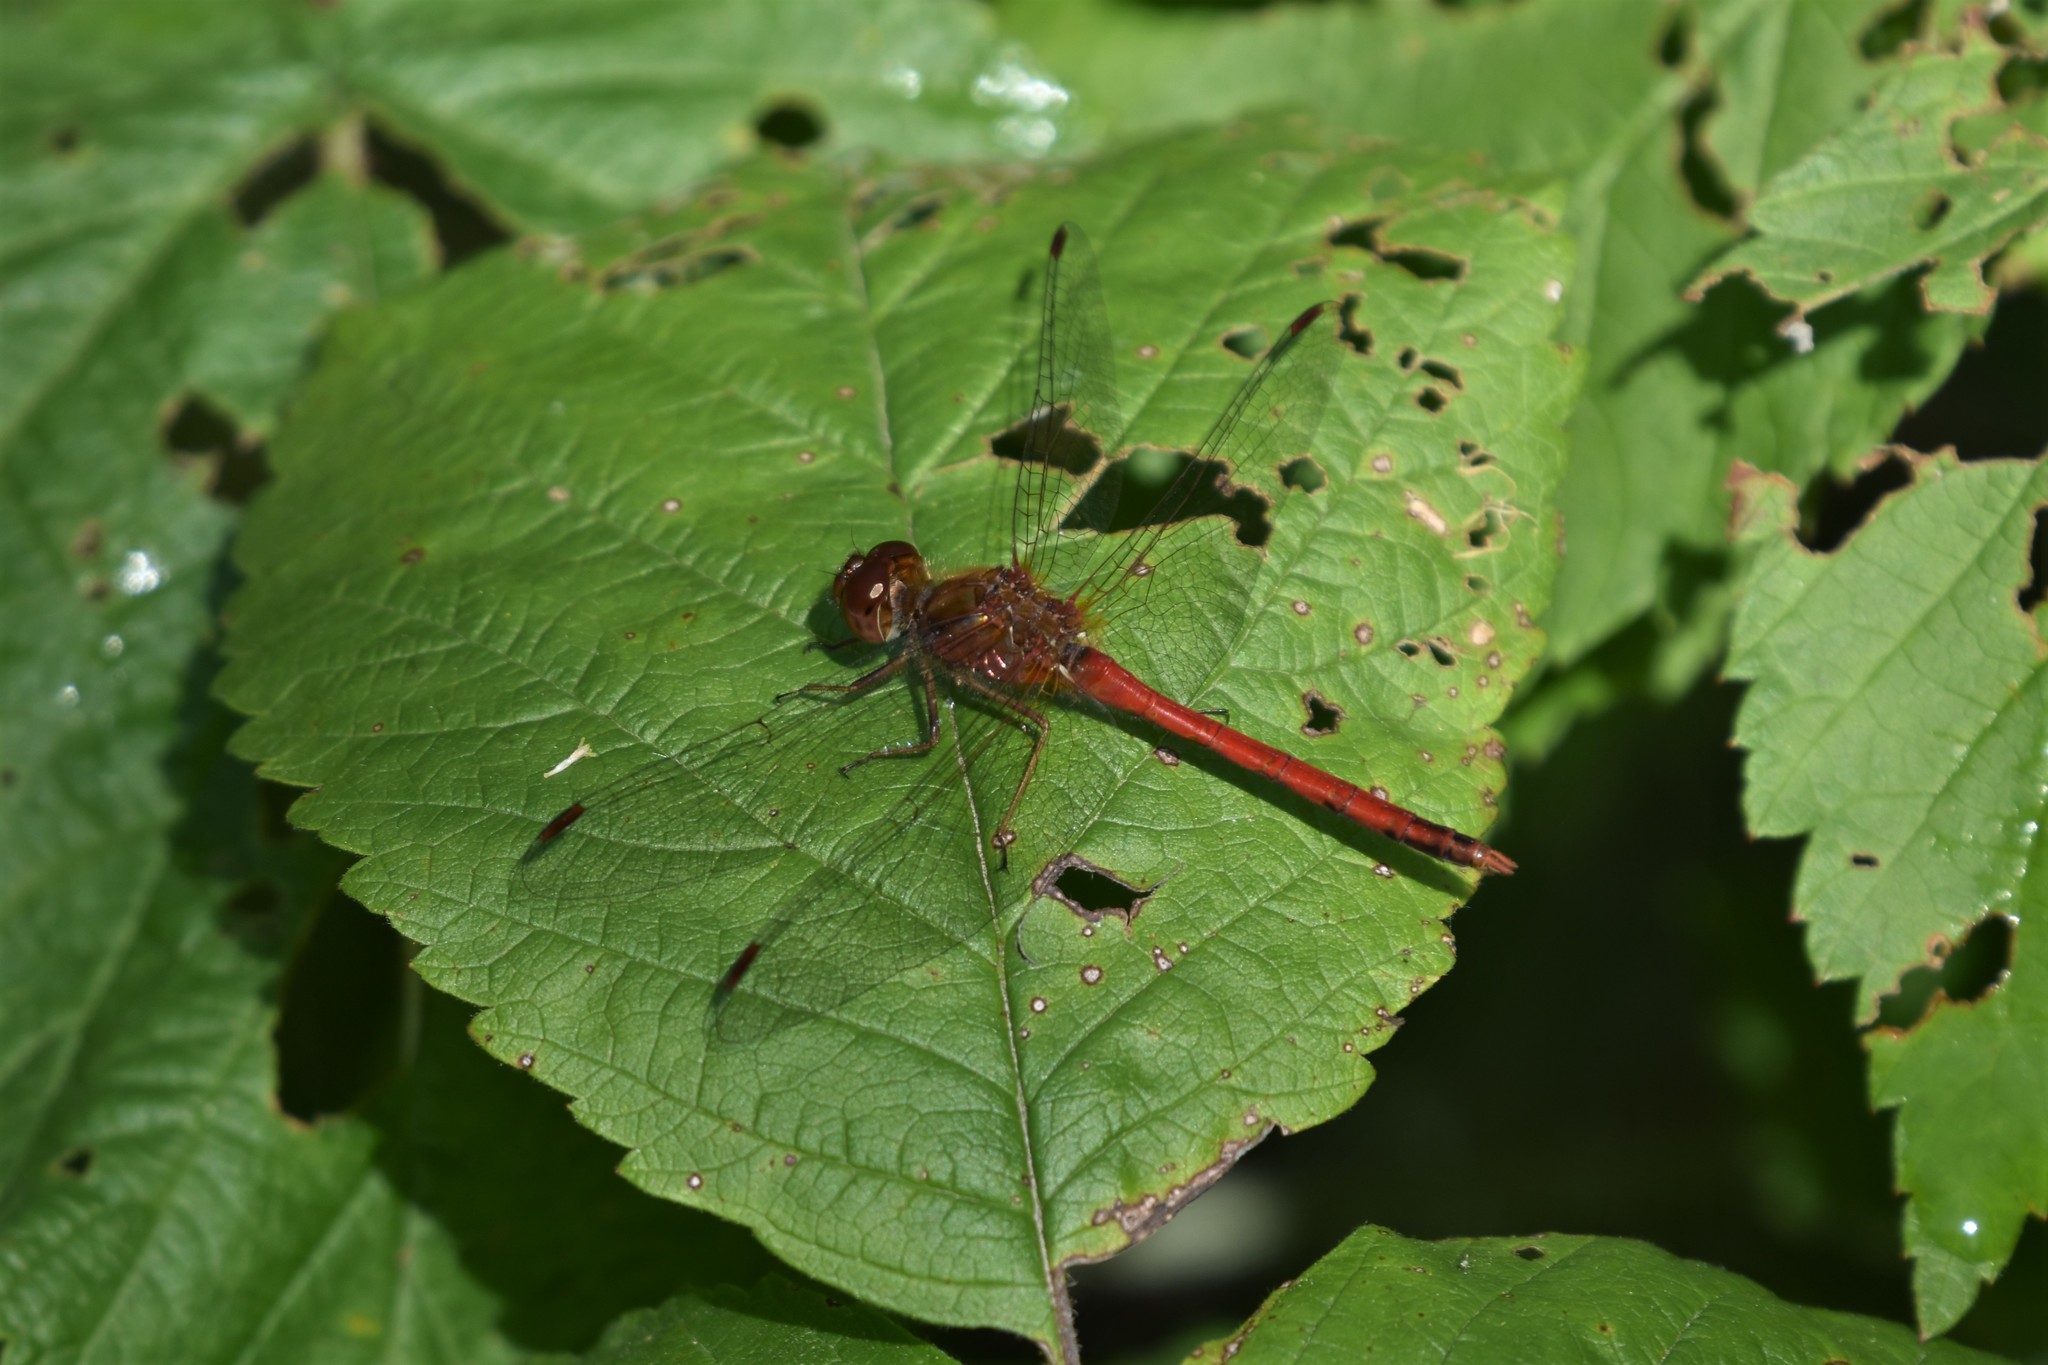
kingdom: Animalia
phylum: Arthropoda
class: Insecta
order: Odonata
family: Libellulidae
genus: Sympetrum
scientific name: Sympetrum vicinum
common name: Autumn meadowhawk
